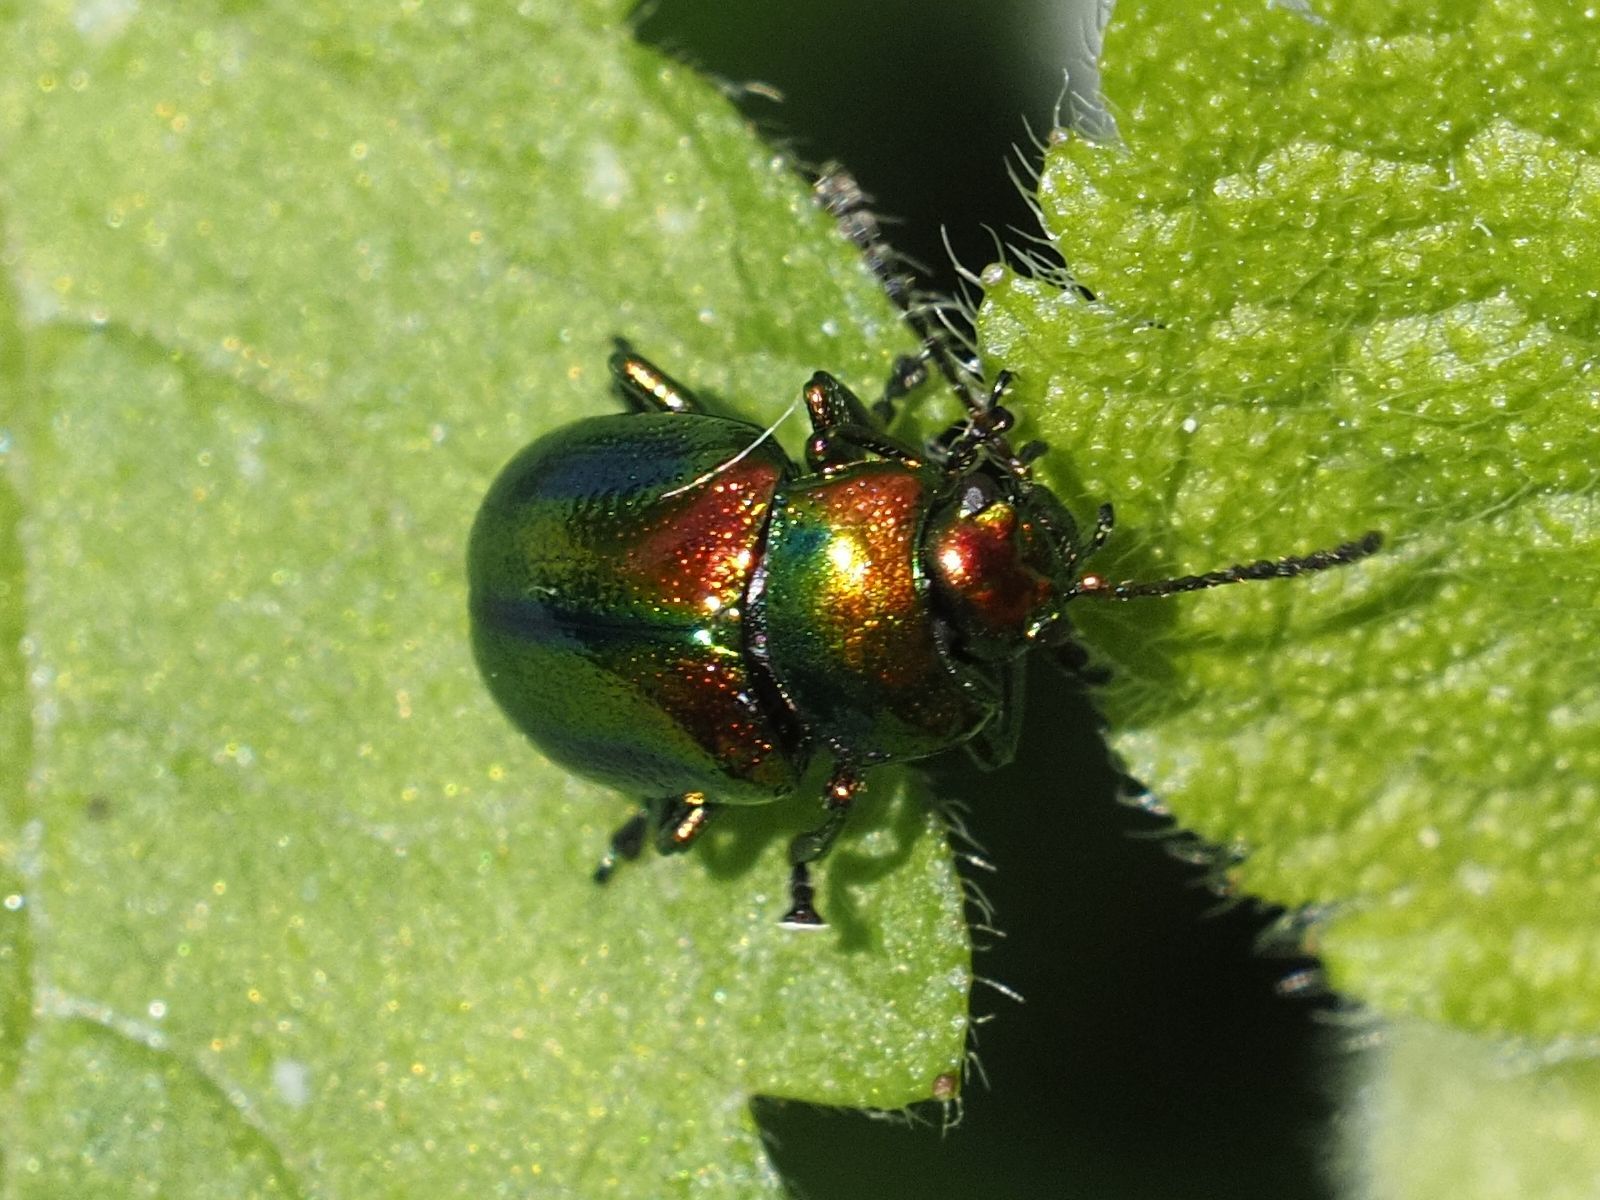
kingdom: Animalia
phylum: Arthropoda
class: Insecta
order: Coleoptera
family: Chrysomelidae
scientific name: Chrysomelidae
